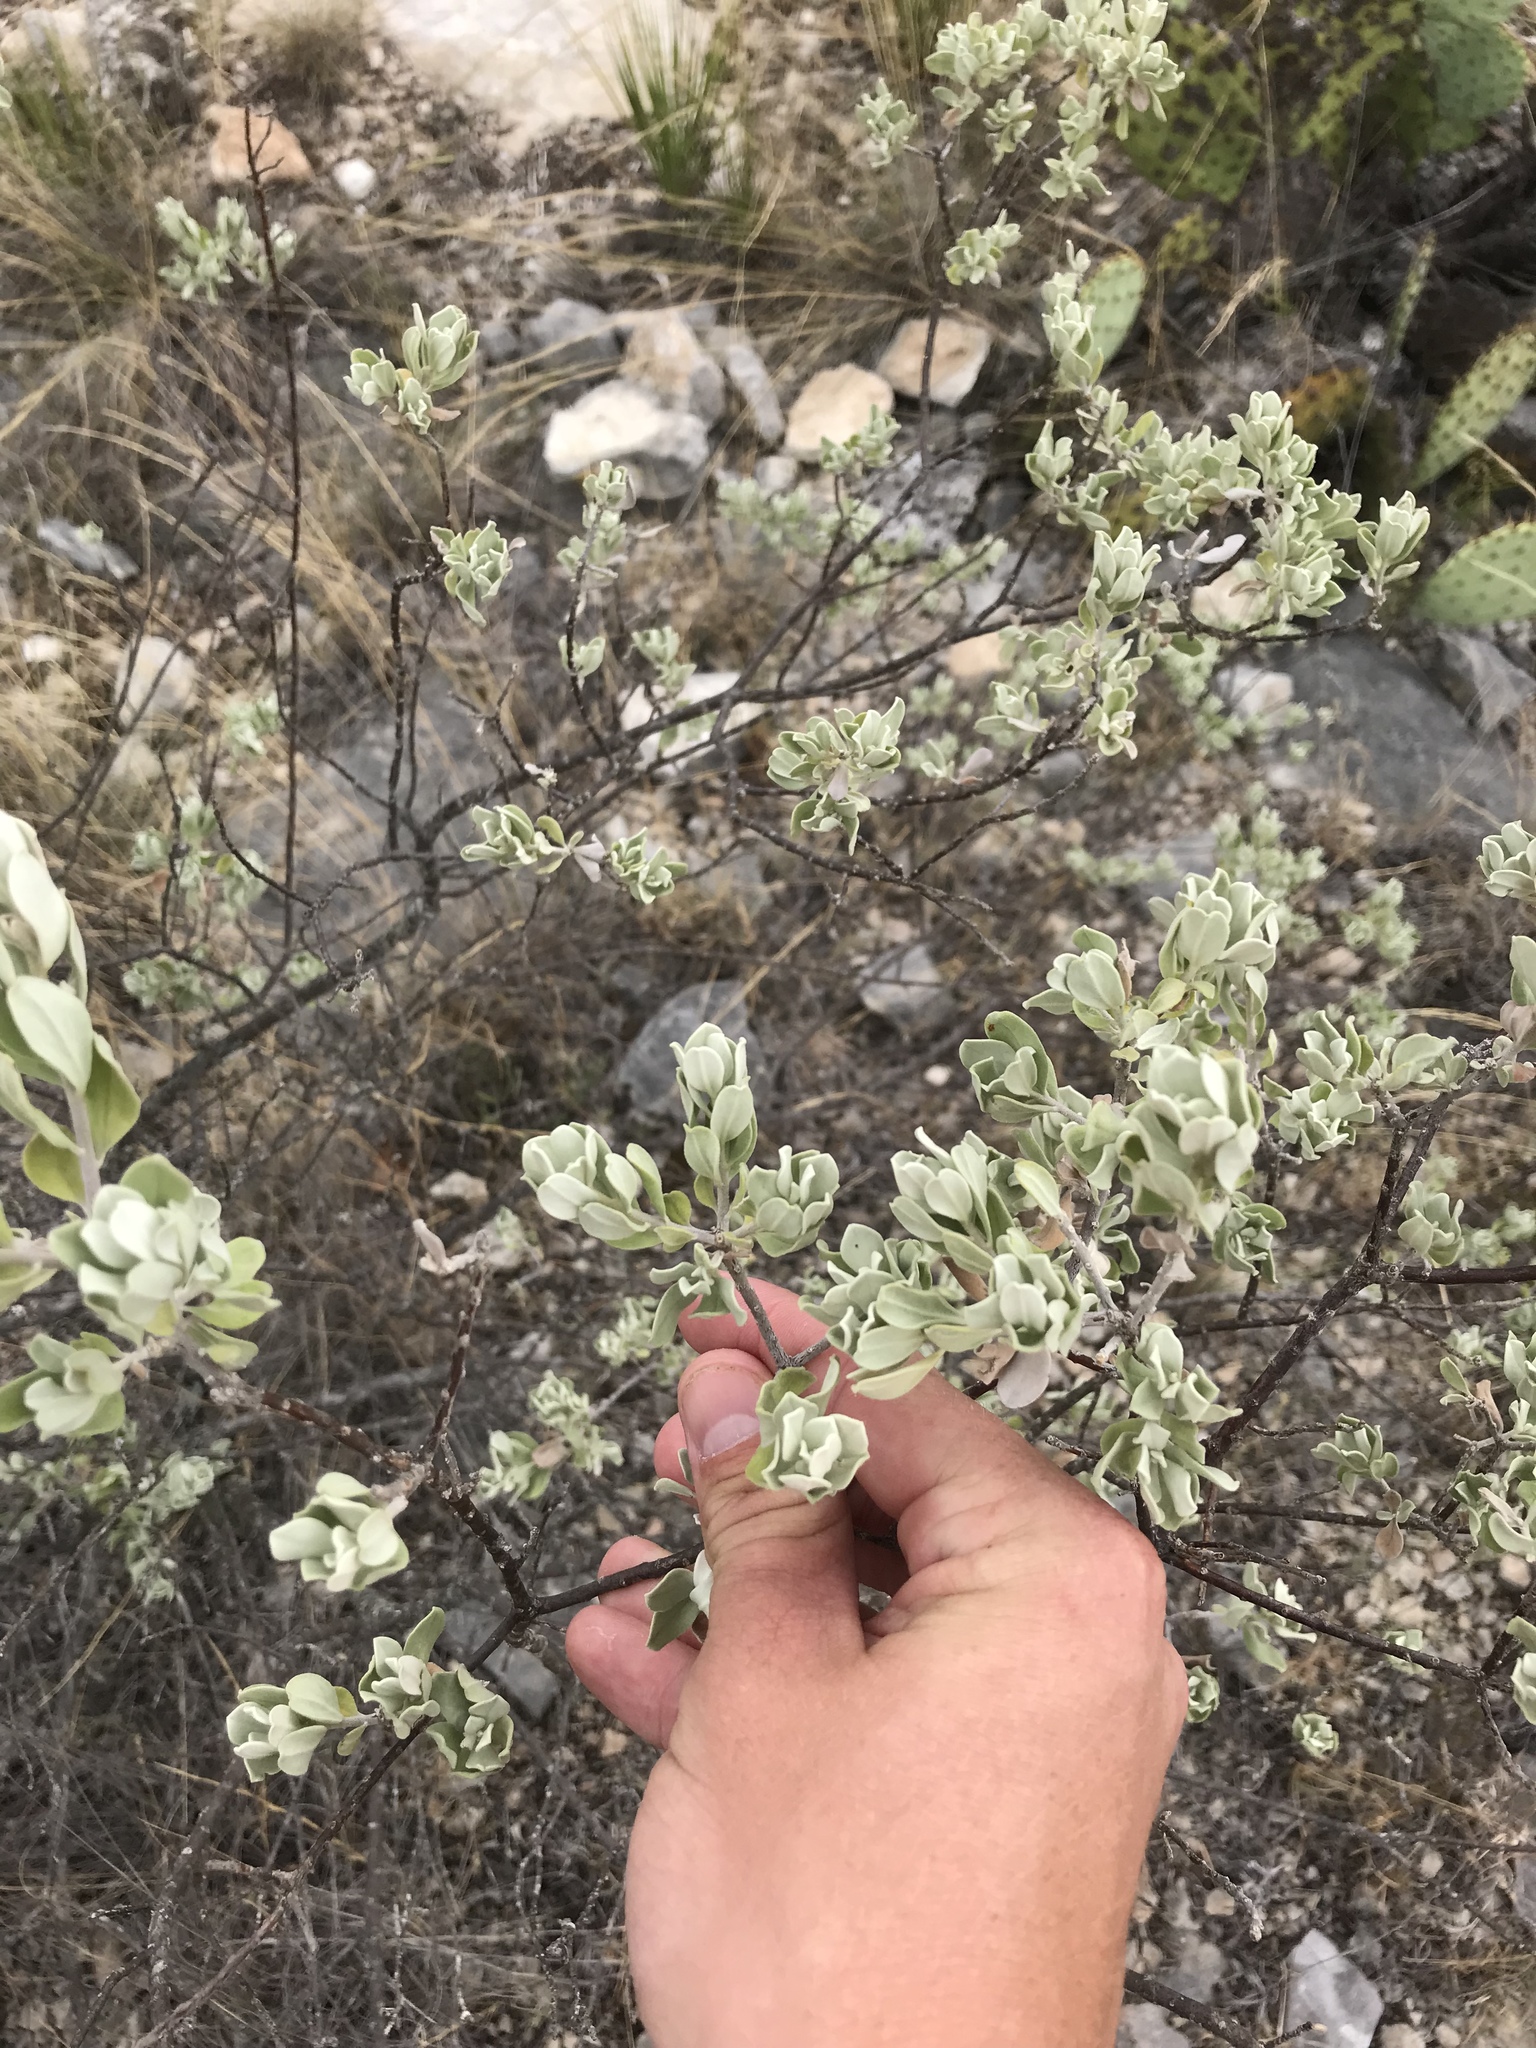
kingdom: Plantae
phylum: Tracheophyta
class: Magnoliopsida
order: Lamiales
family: Scrophulariaceae
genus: Leucophyllum
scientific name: Leucophyllum frutescens
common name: Texas silverleaf
